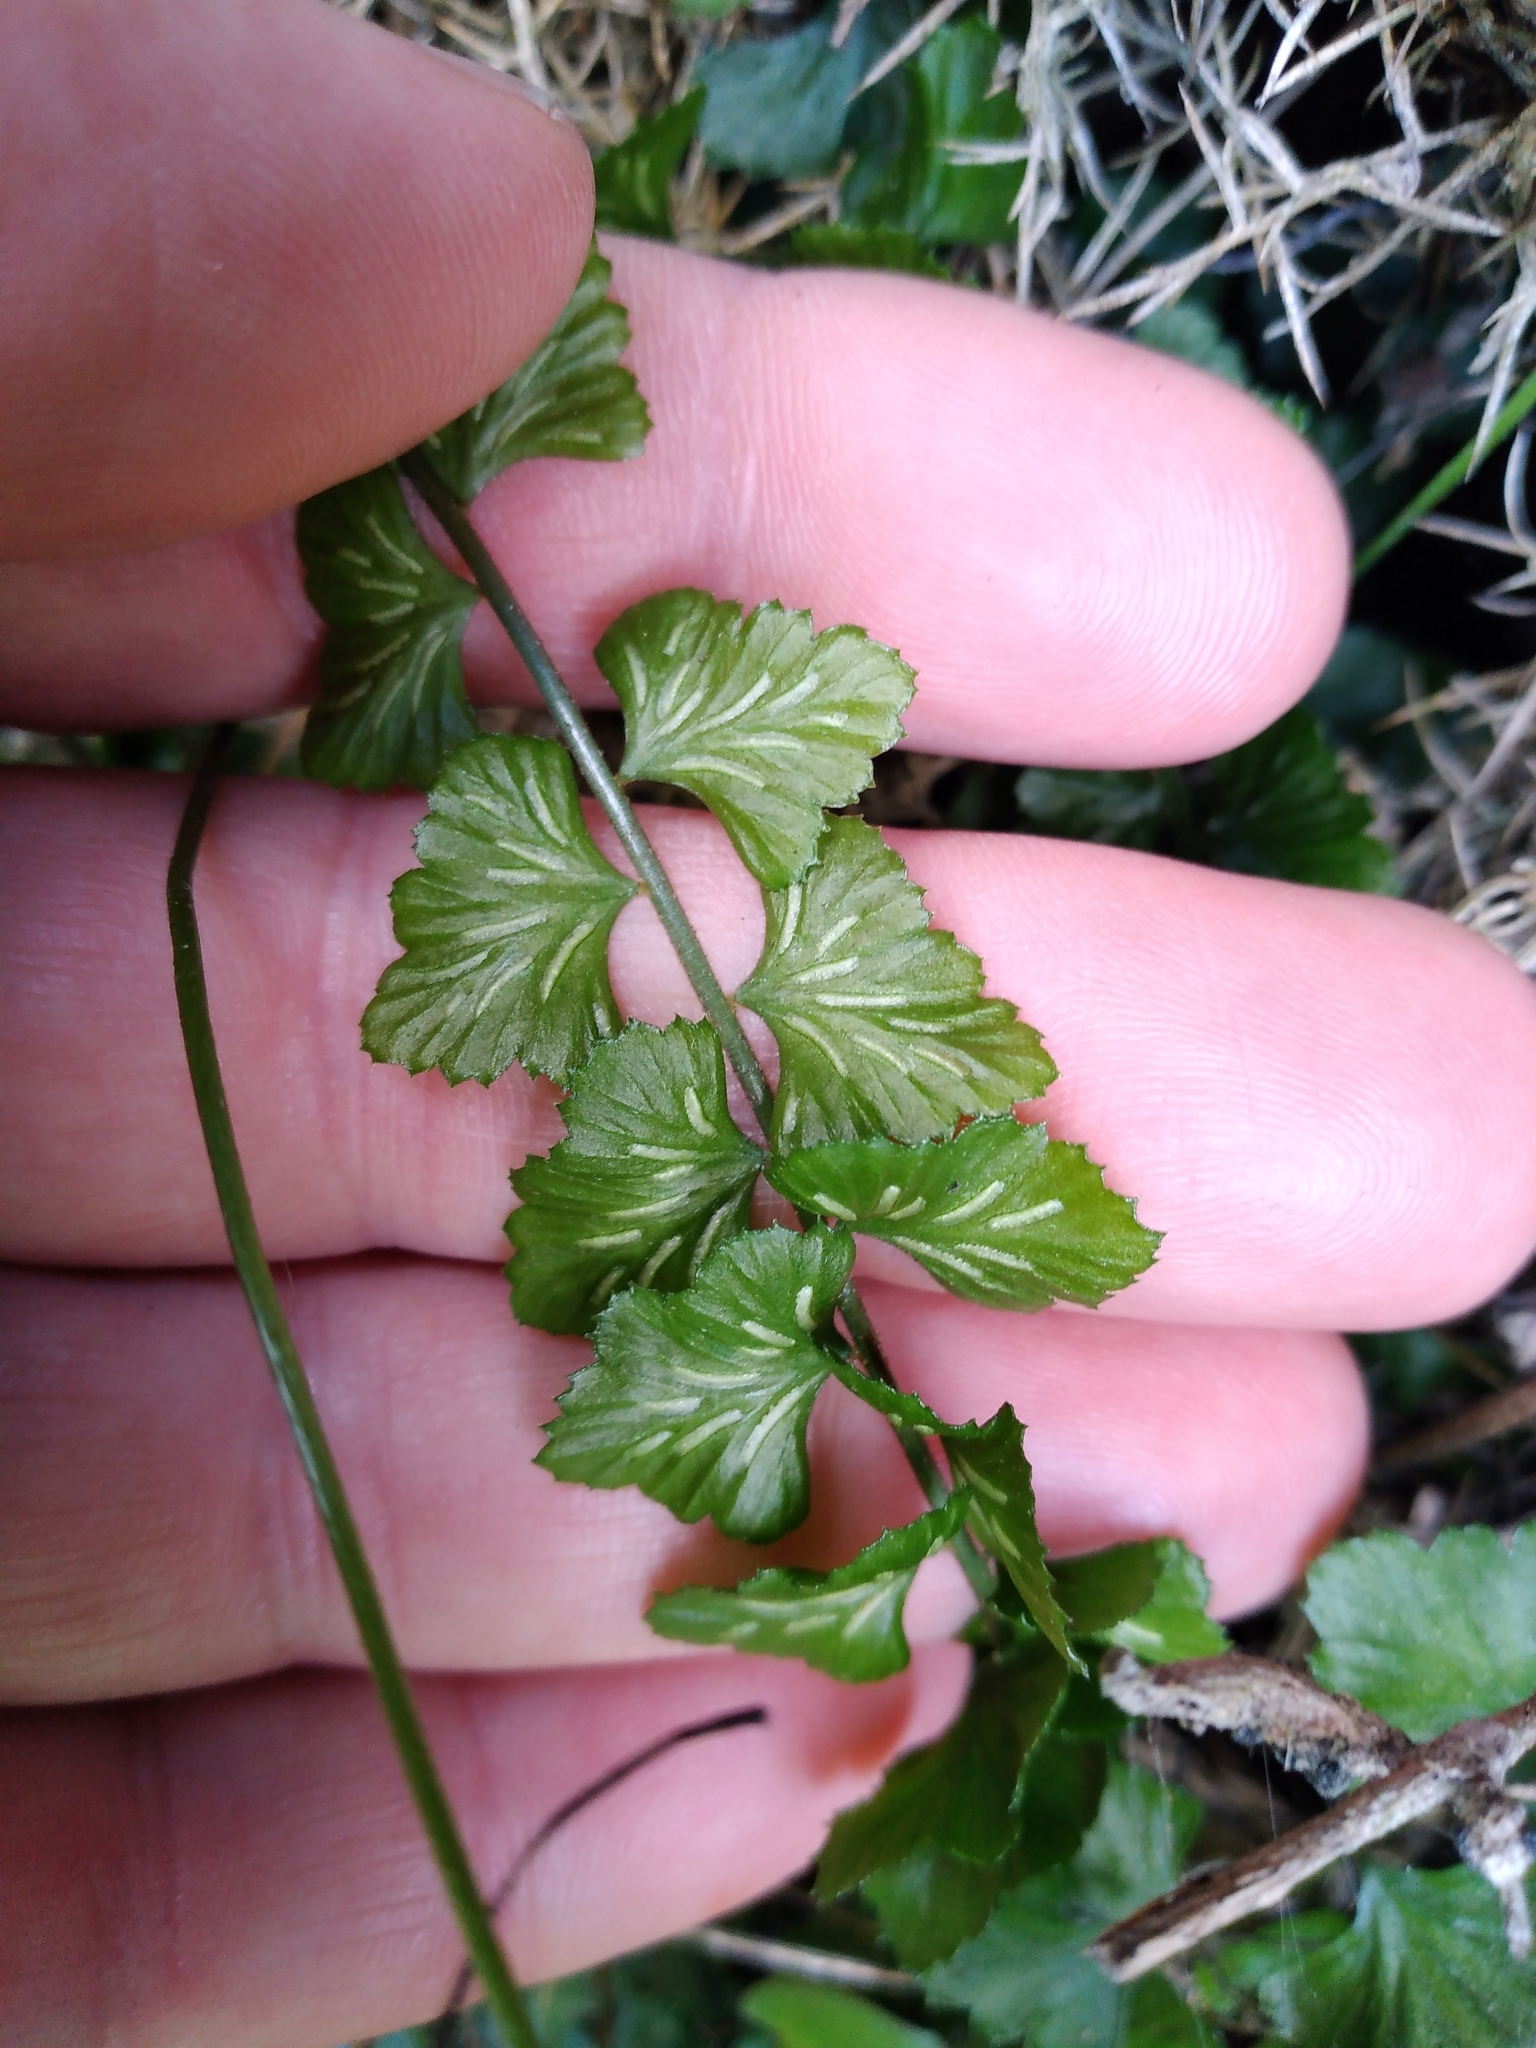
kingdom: Plantae
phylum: Tracheophyta
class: Polypodiopsida
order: Polypodiales
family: Aspleniaceae
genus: Asplenium
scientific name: Asplenium flabellifolium
